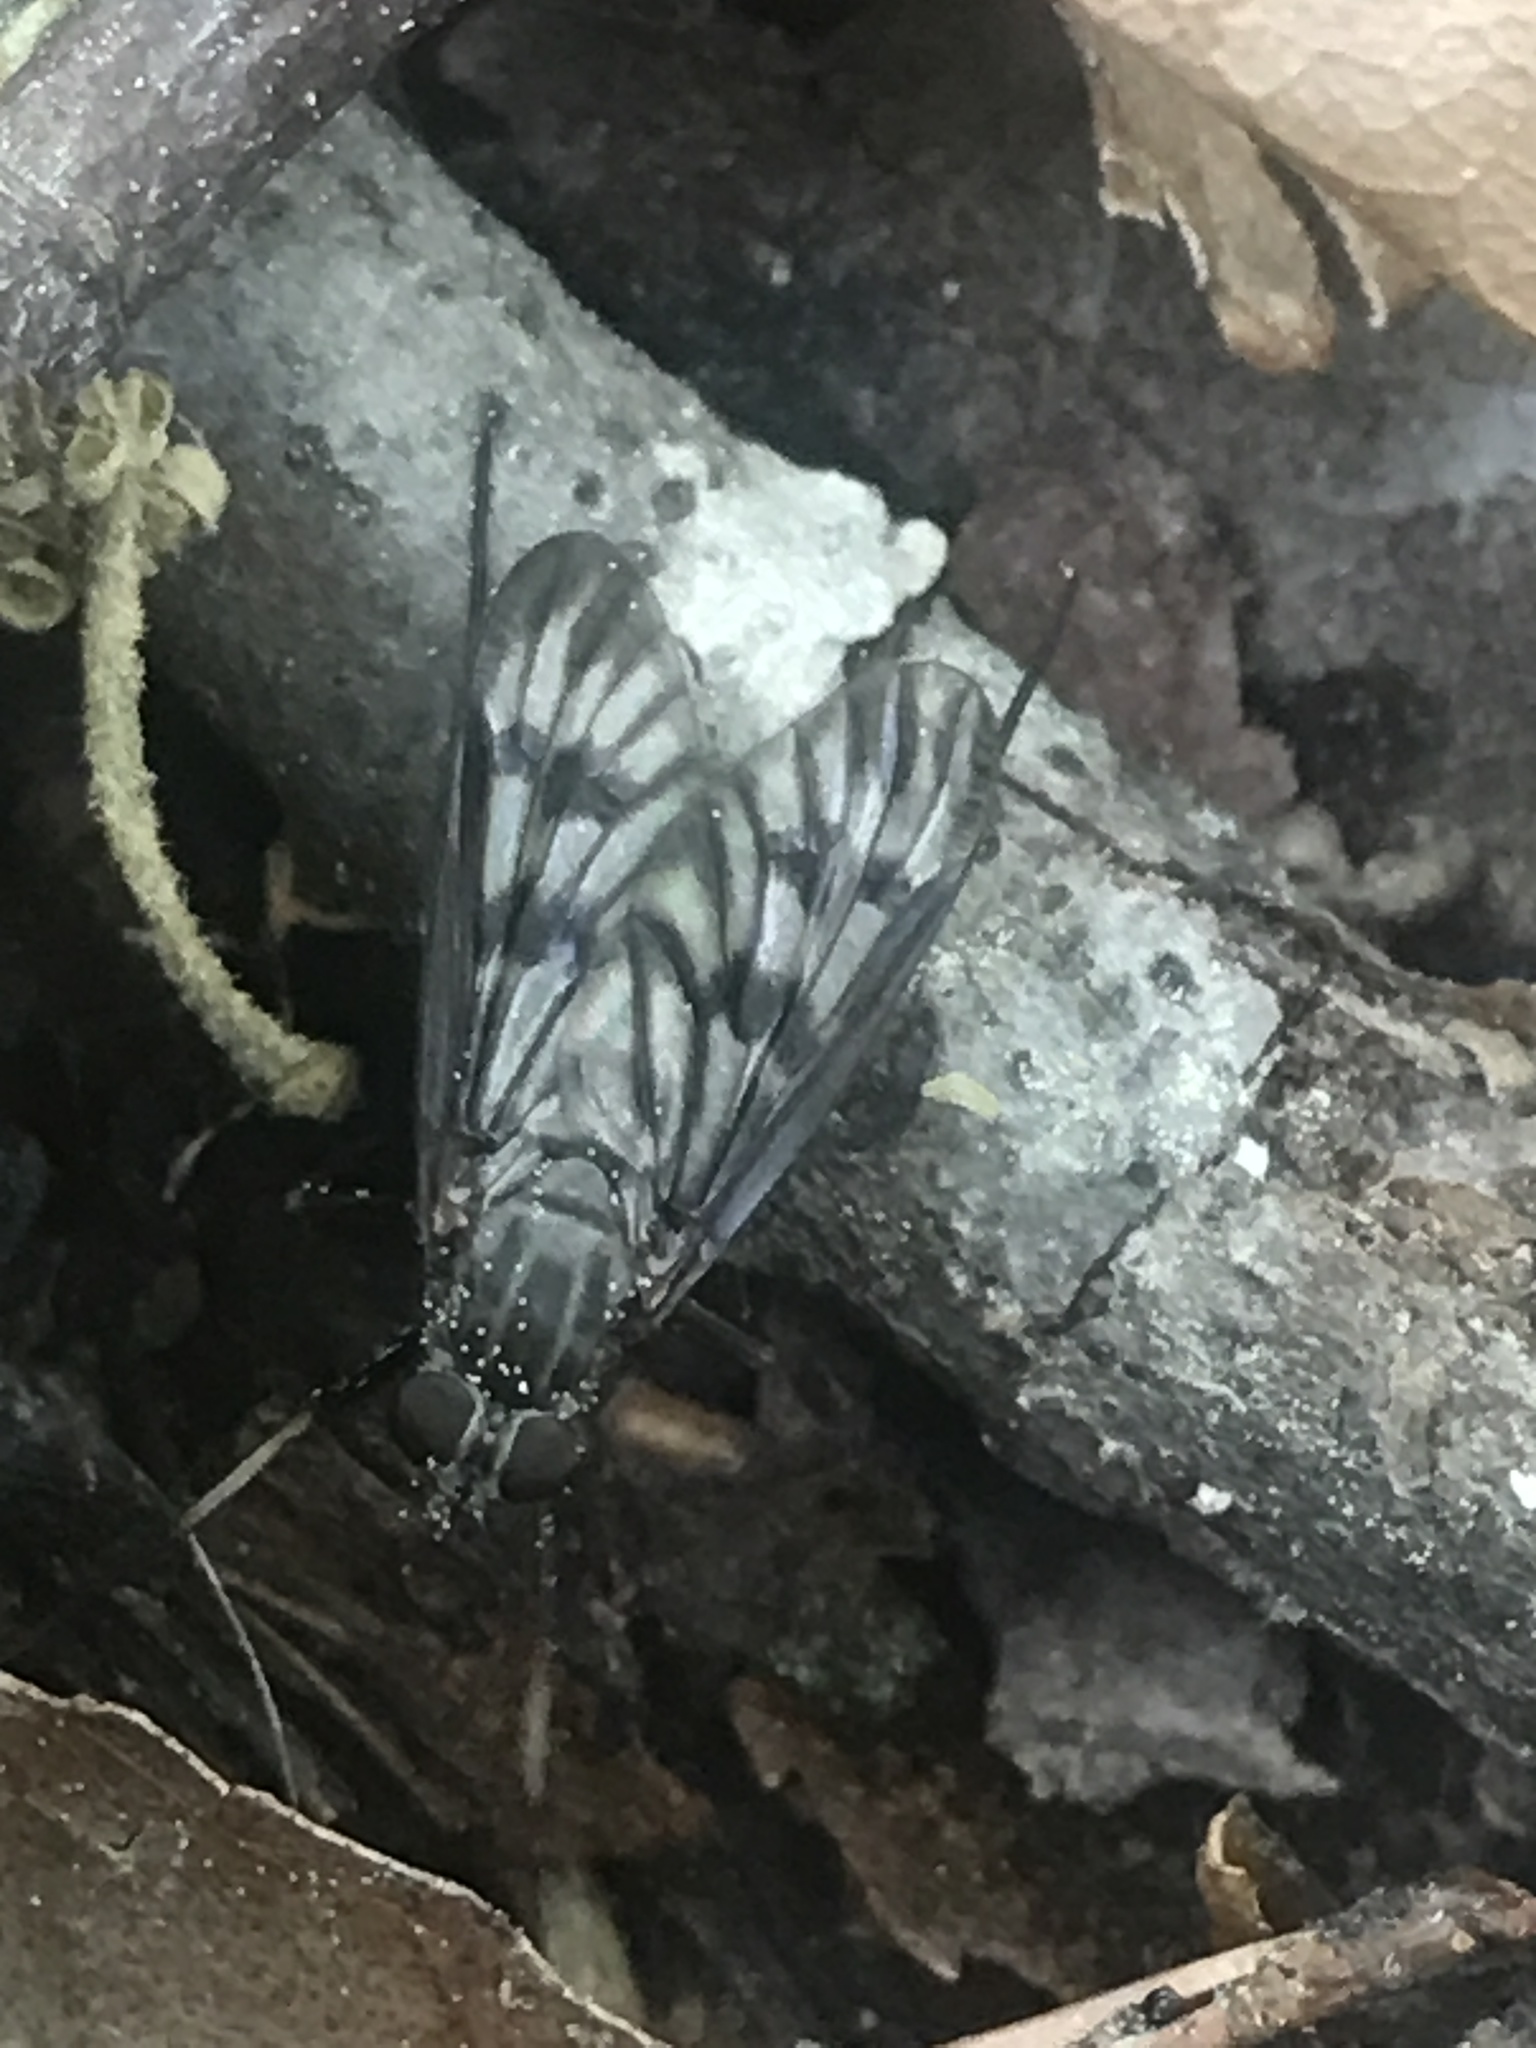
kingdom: Animalia
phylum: Arthropoda
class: Insecta
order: Diptera
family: Rhagionidae
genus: Rhagio
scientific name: Rhagio mystaceus
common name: Common snipe fly
